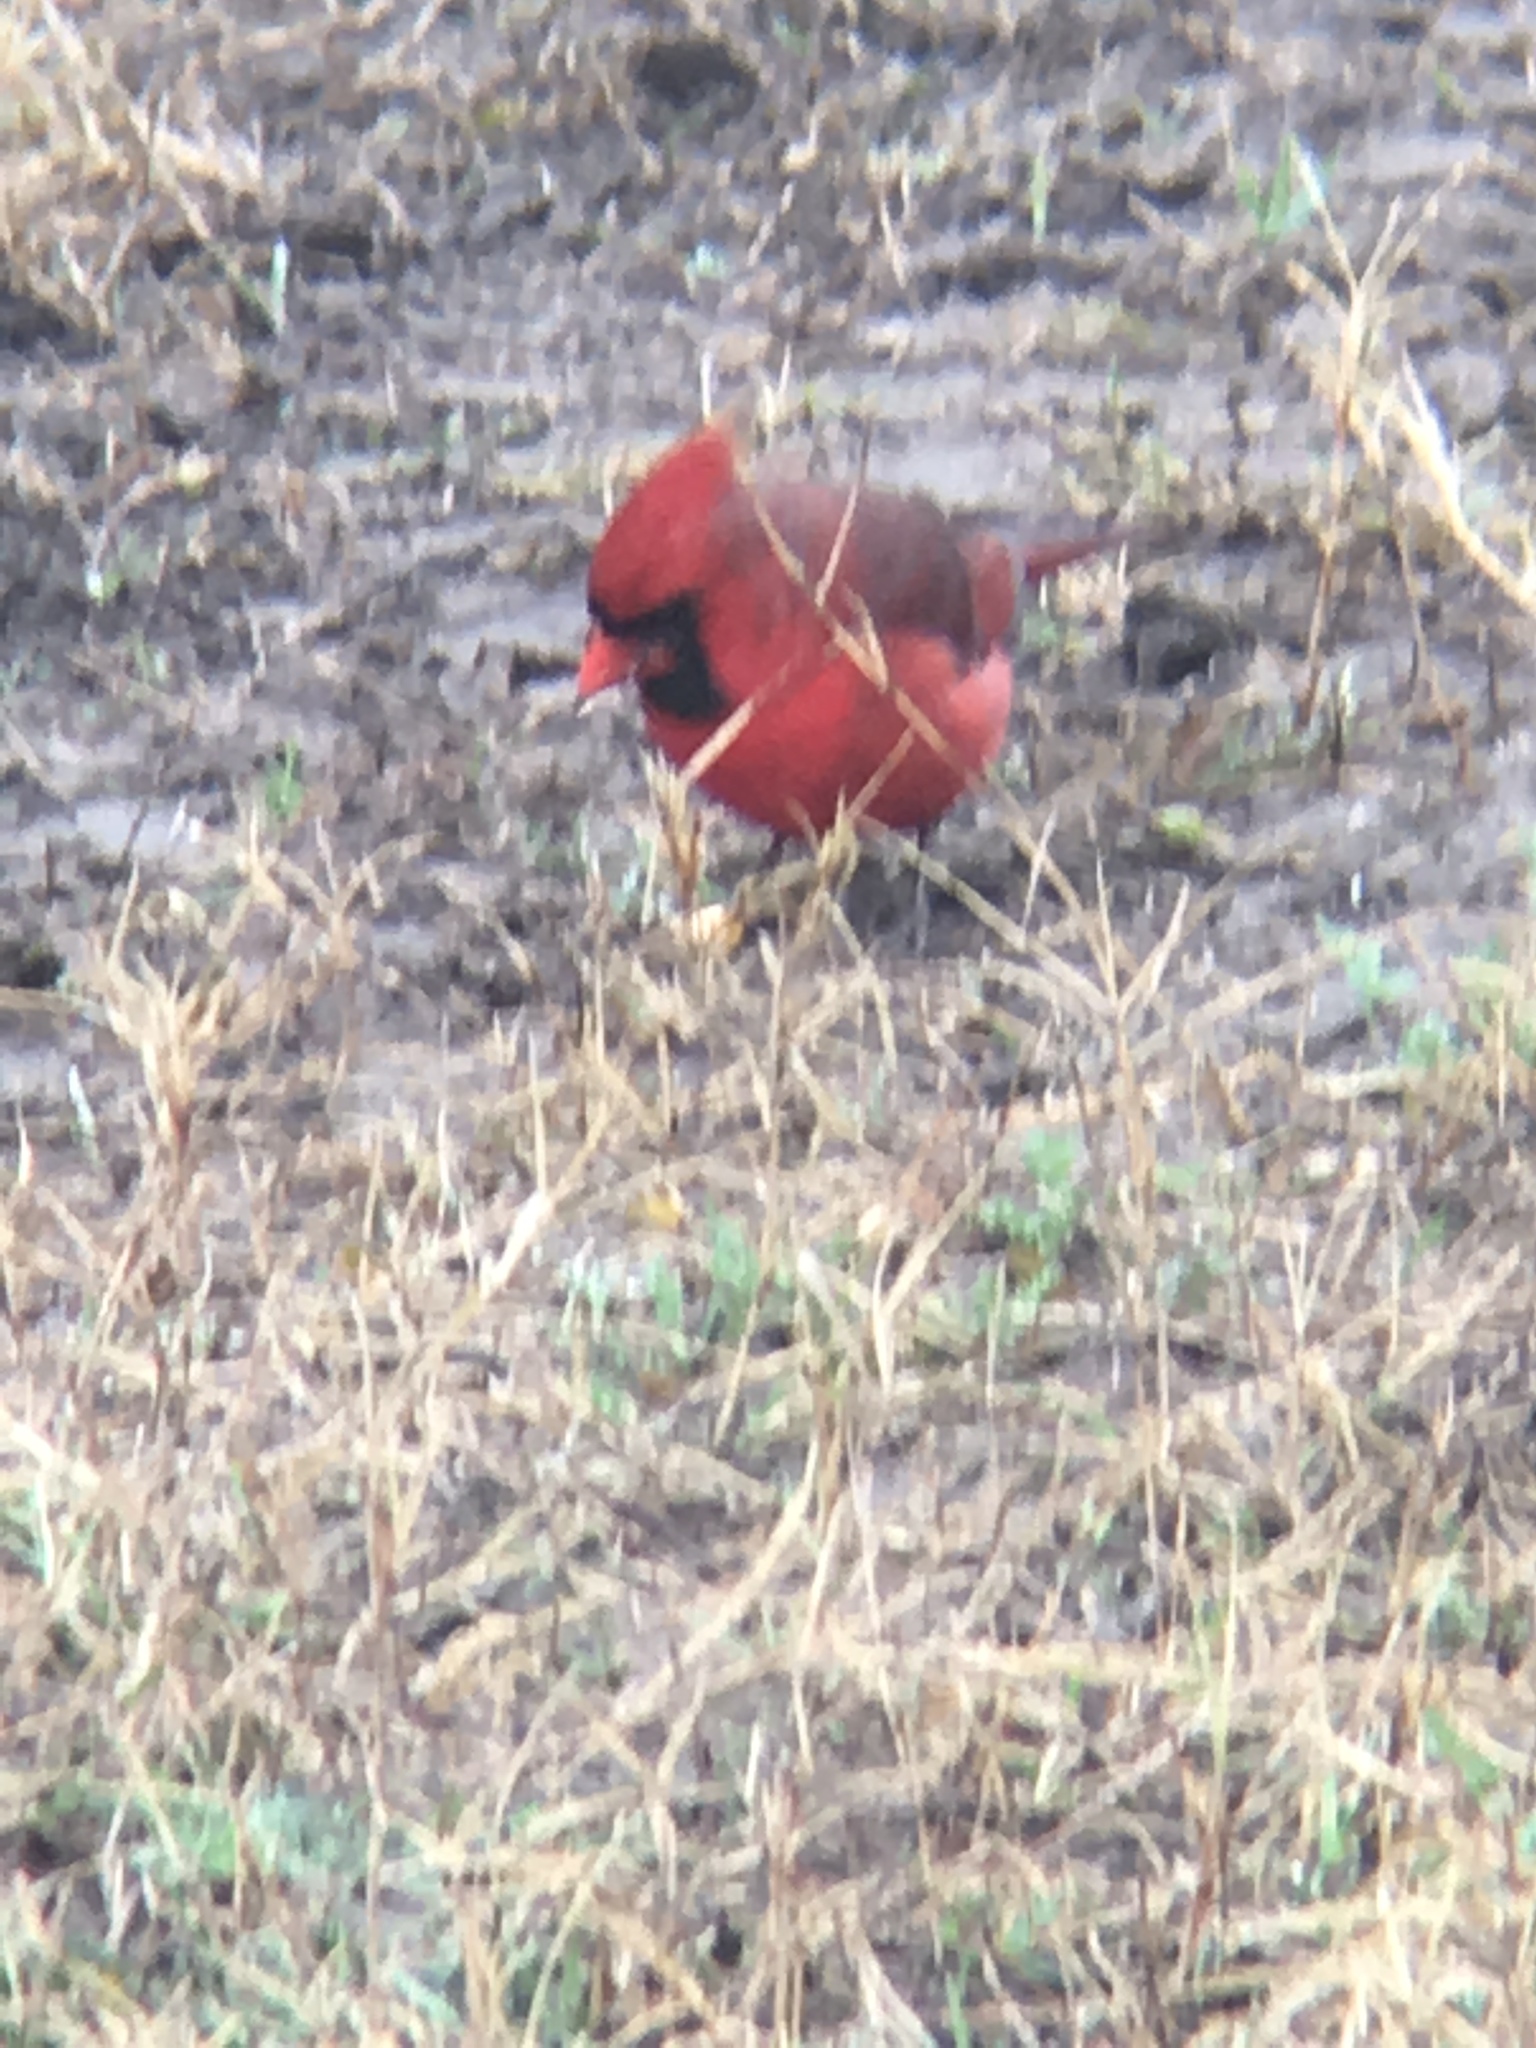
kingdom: Animalia
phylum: Chordata
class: Aves
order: Passeriformes
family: Cardinalidae
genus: Cardinalis
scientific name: Cardinalis cardinalis
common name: Northern cardinal
